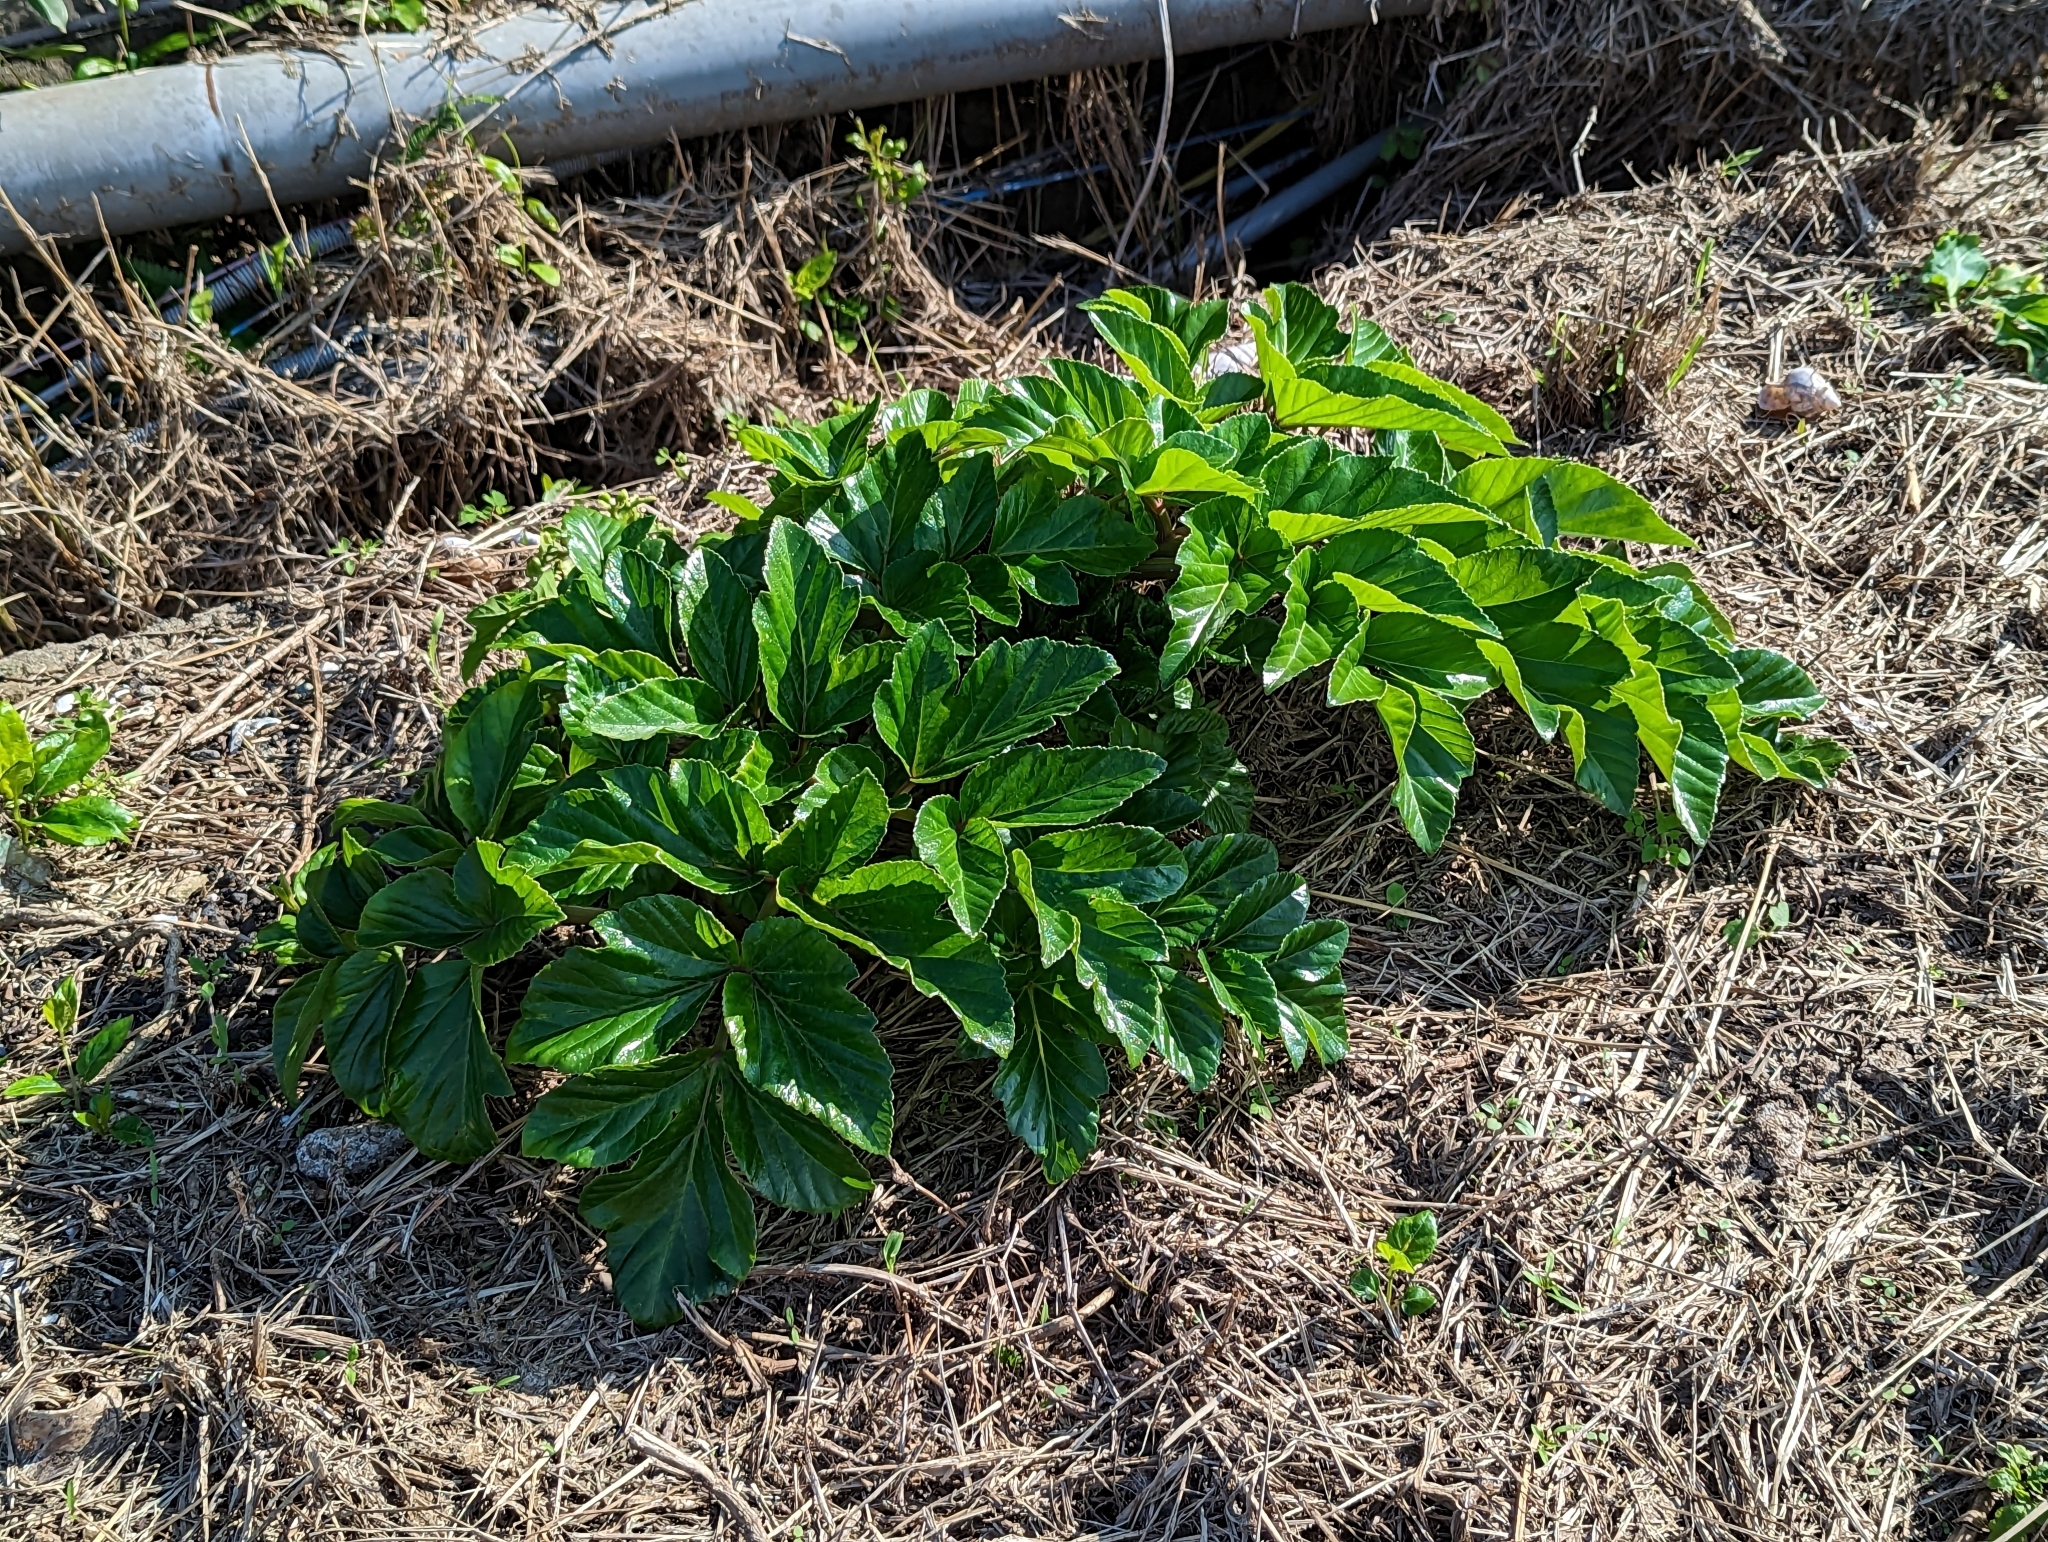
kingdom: Plantae
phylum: Tracheophyta
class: Magnoliopsida
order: Apiales
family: Apiaceae
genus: Angelica
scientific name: Angelica hirsutiflora
